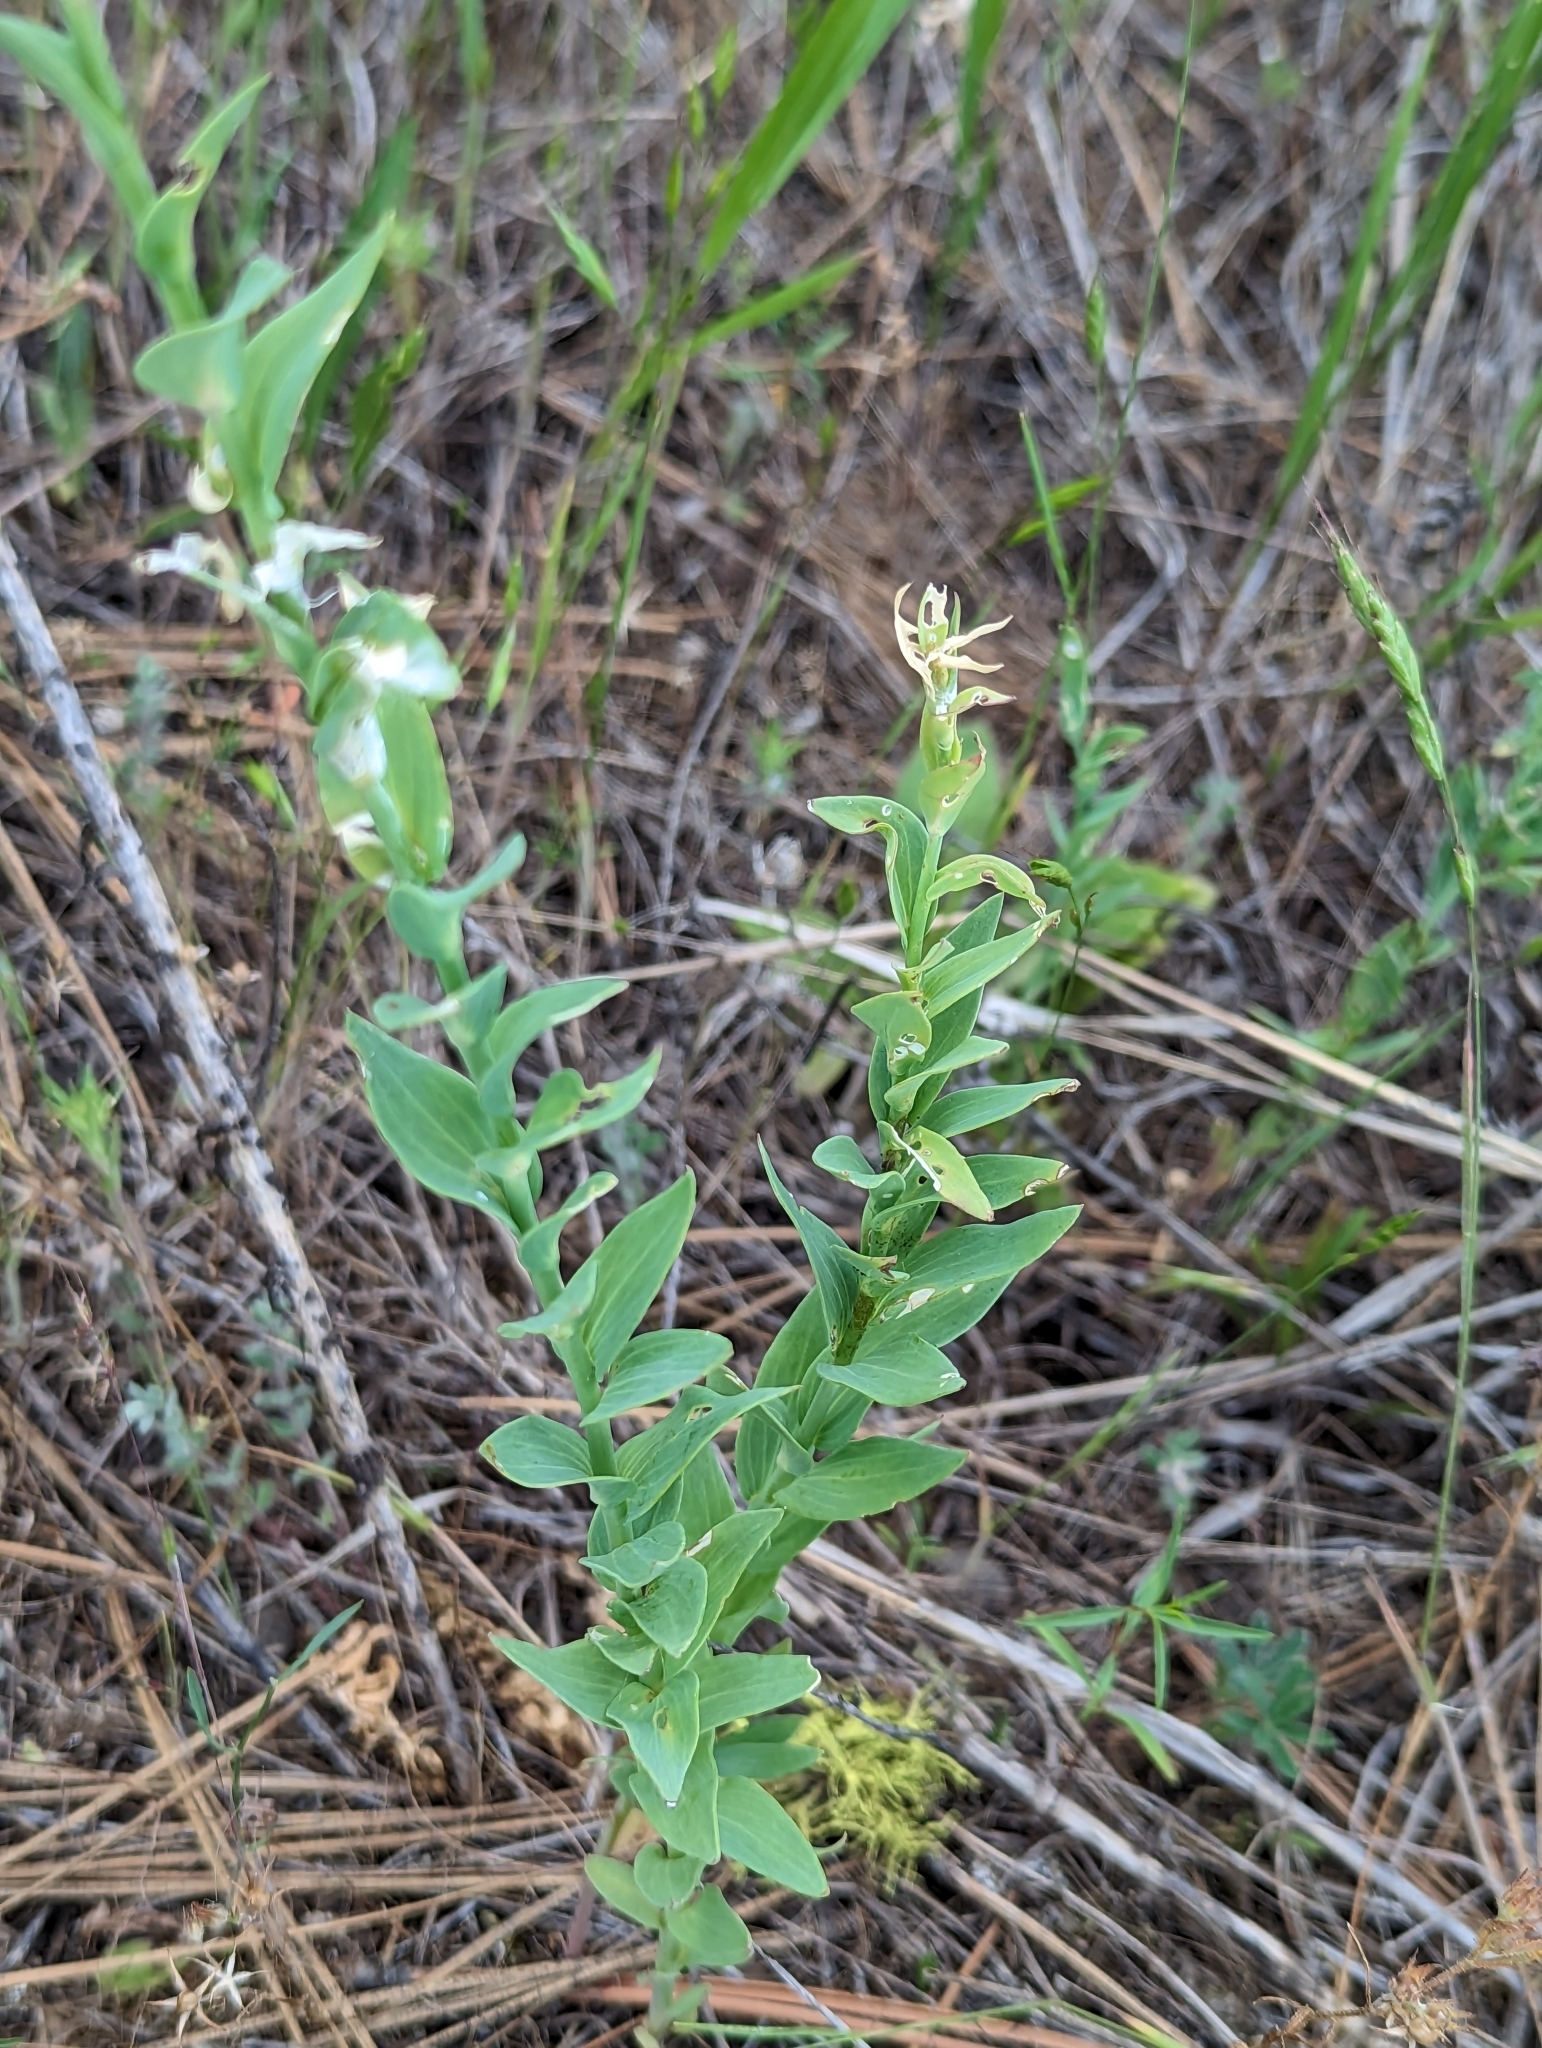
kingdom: Plantae
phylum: Tracheophyta
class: Magnoliopsida
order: Lamiales
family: Plantaginaceae
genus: Linaria
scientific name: Linaria dalmatica
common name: Dalmatian toadflax
